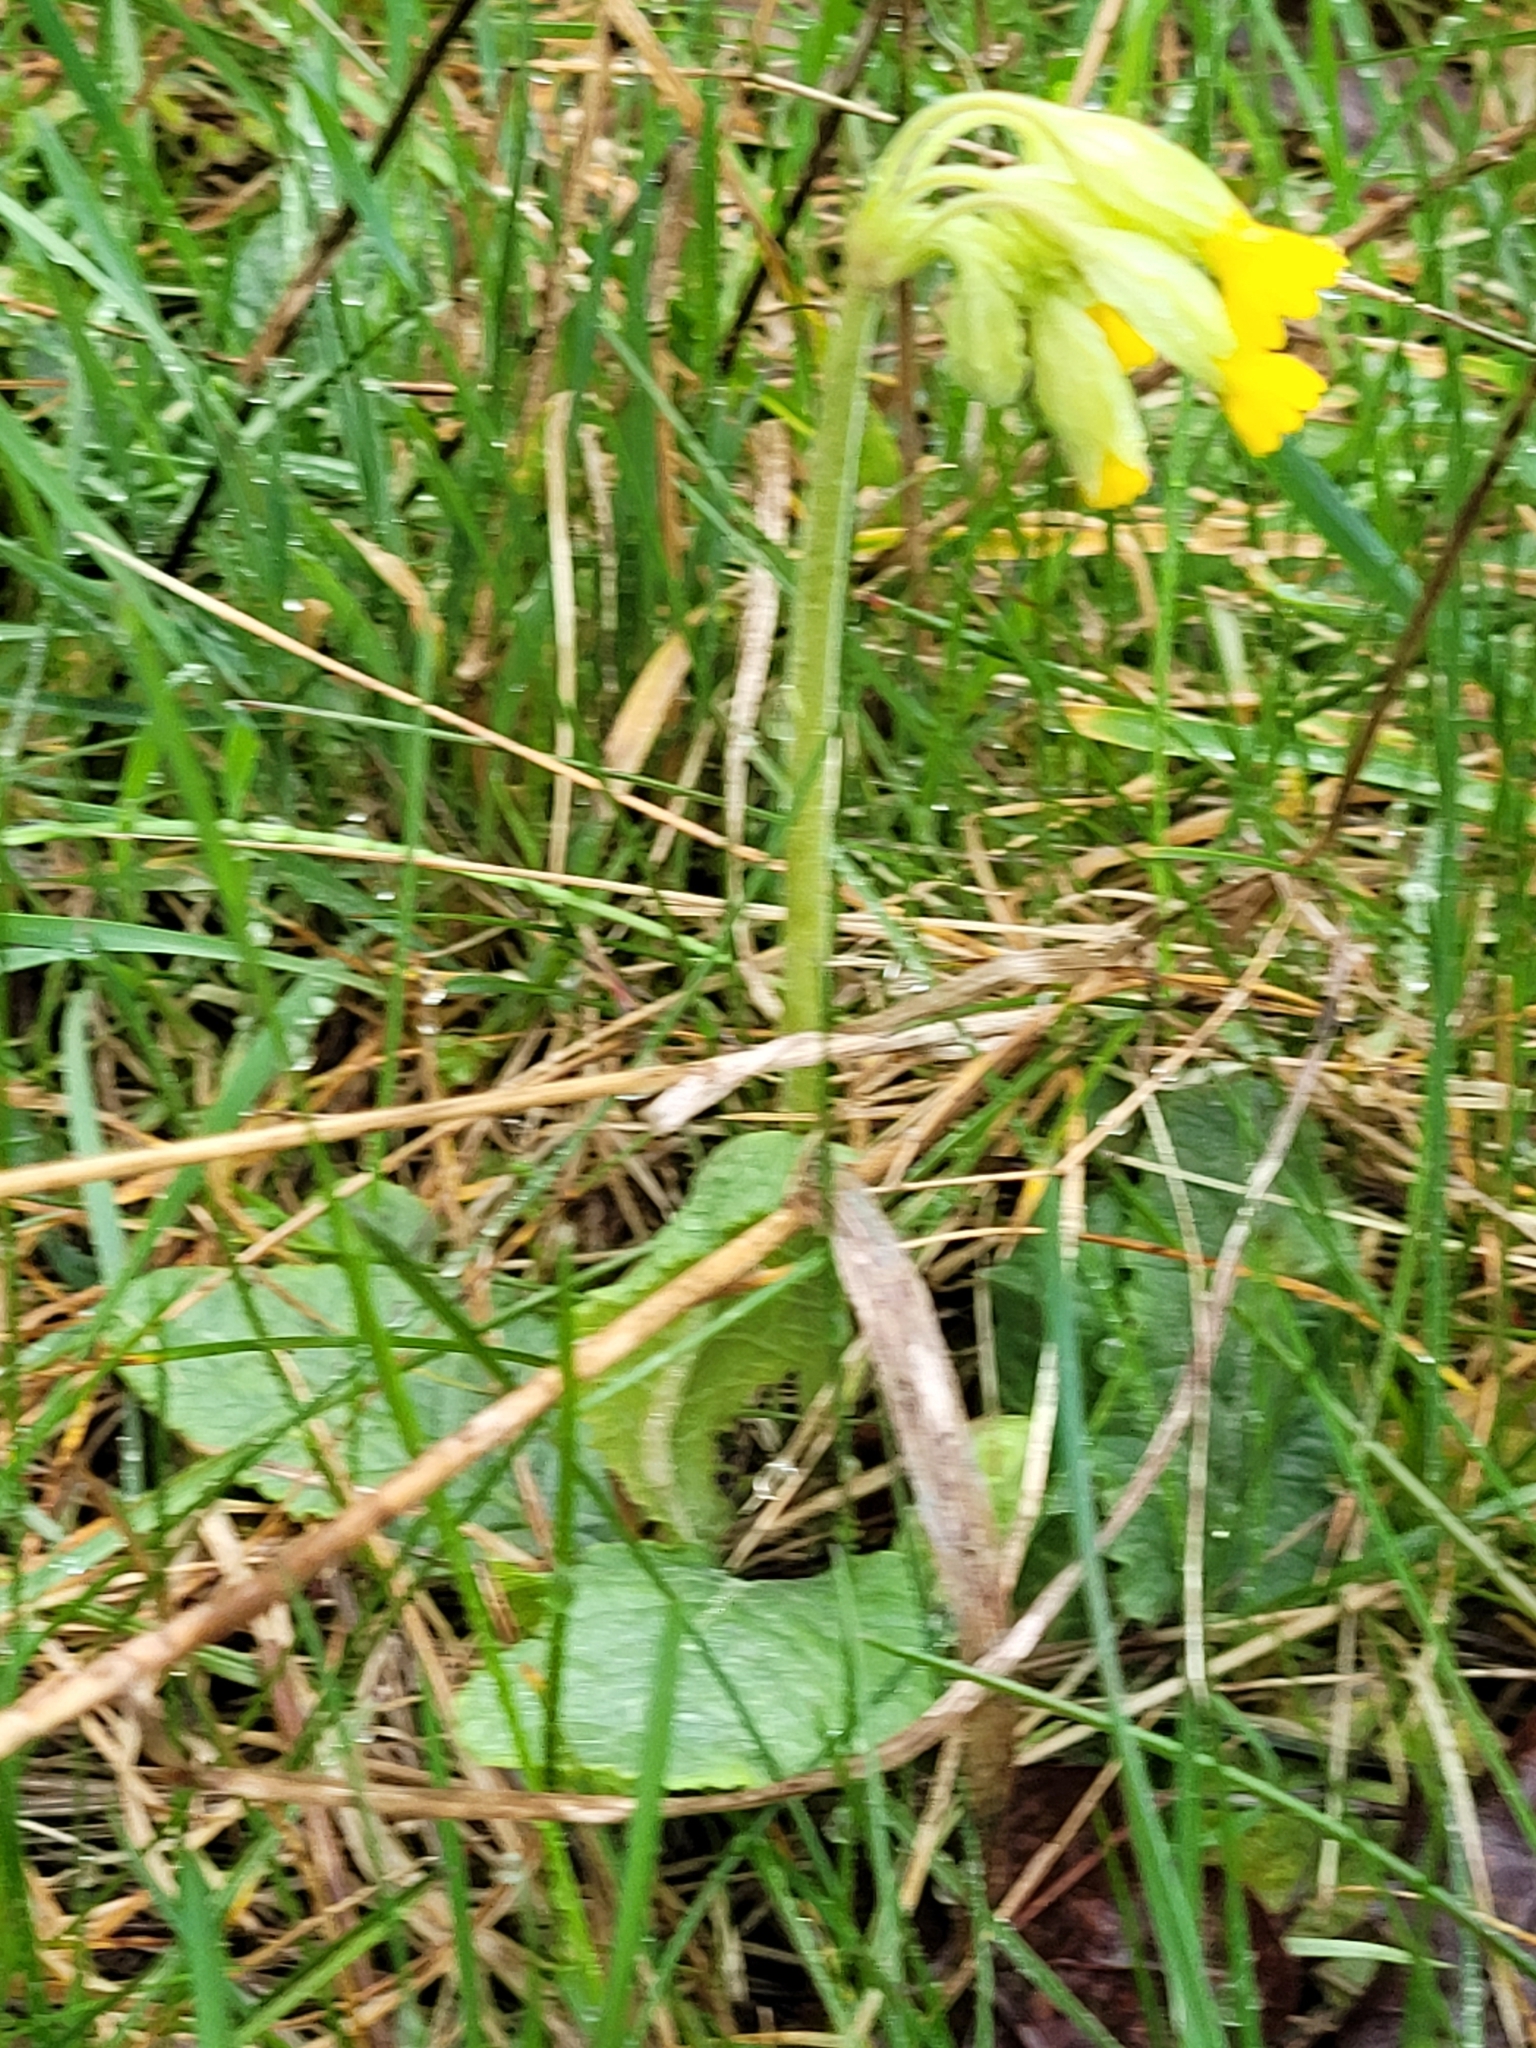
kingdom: Plantae
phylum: Tracheophyta
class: Magnoliopsida
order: Ericales
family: Primulaceae
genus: Primula
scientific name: Primula veris
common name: Cowslip
